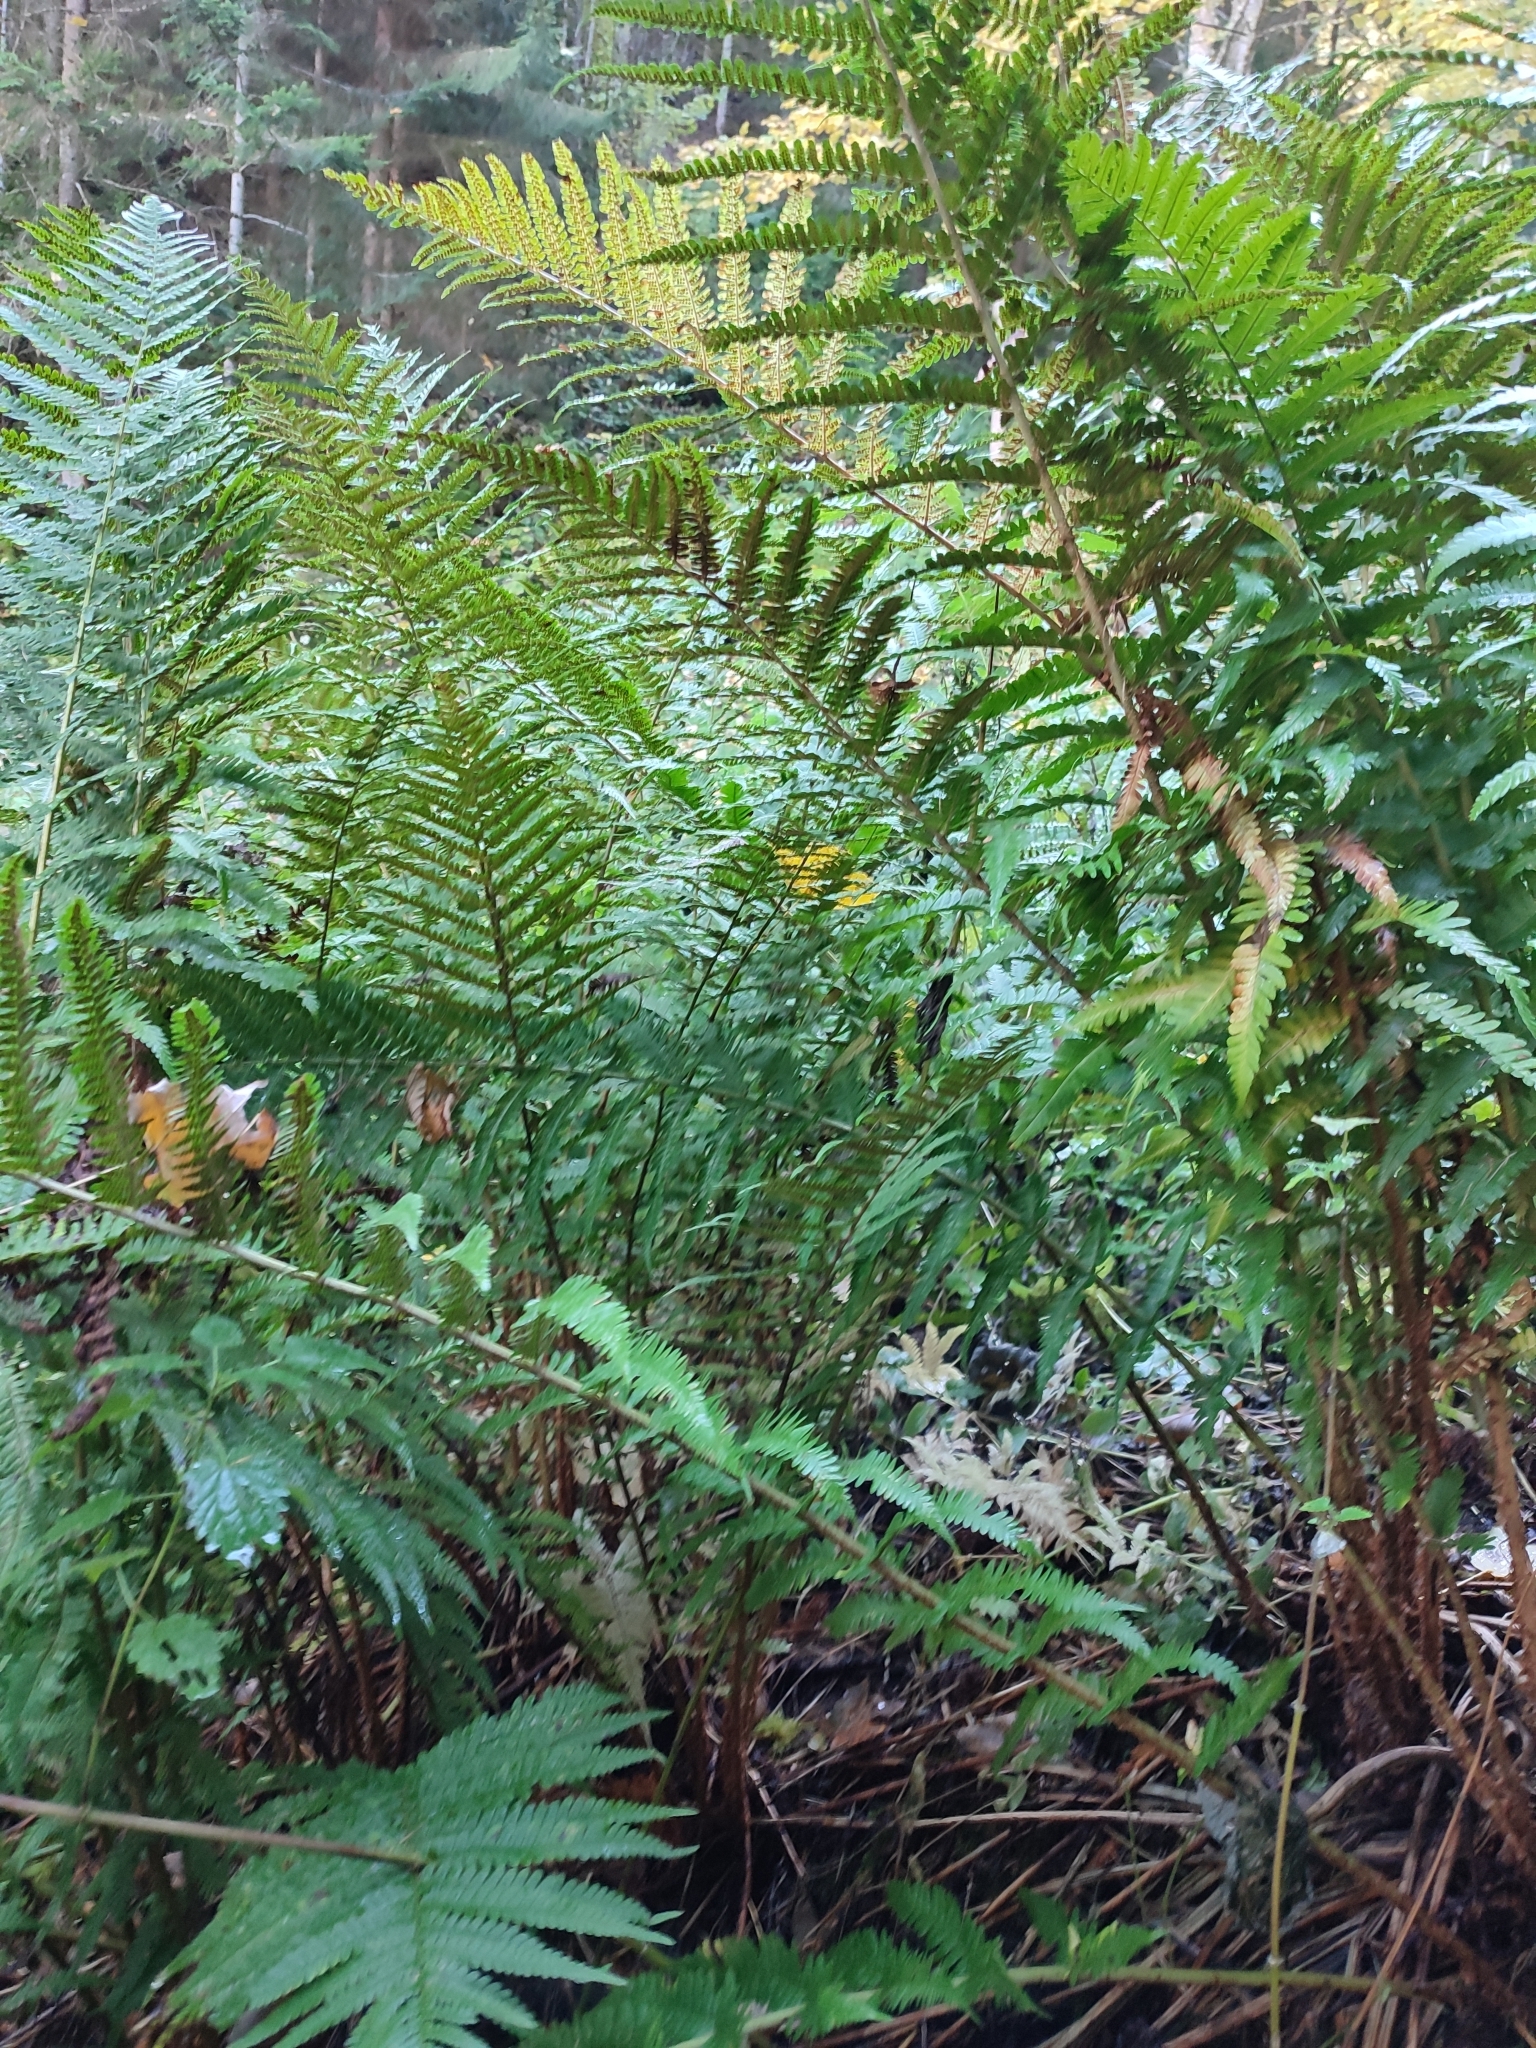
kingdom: Plantae
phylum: Tracheophyta
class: Polypodiopsida
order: Polypodiales
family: Dryopteridaceae
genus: Dryopteris
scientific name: Dryopteris filix-mas
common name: Male fern
